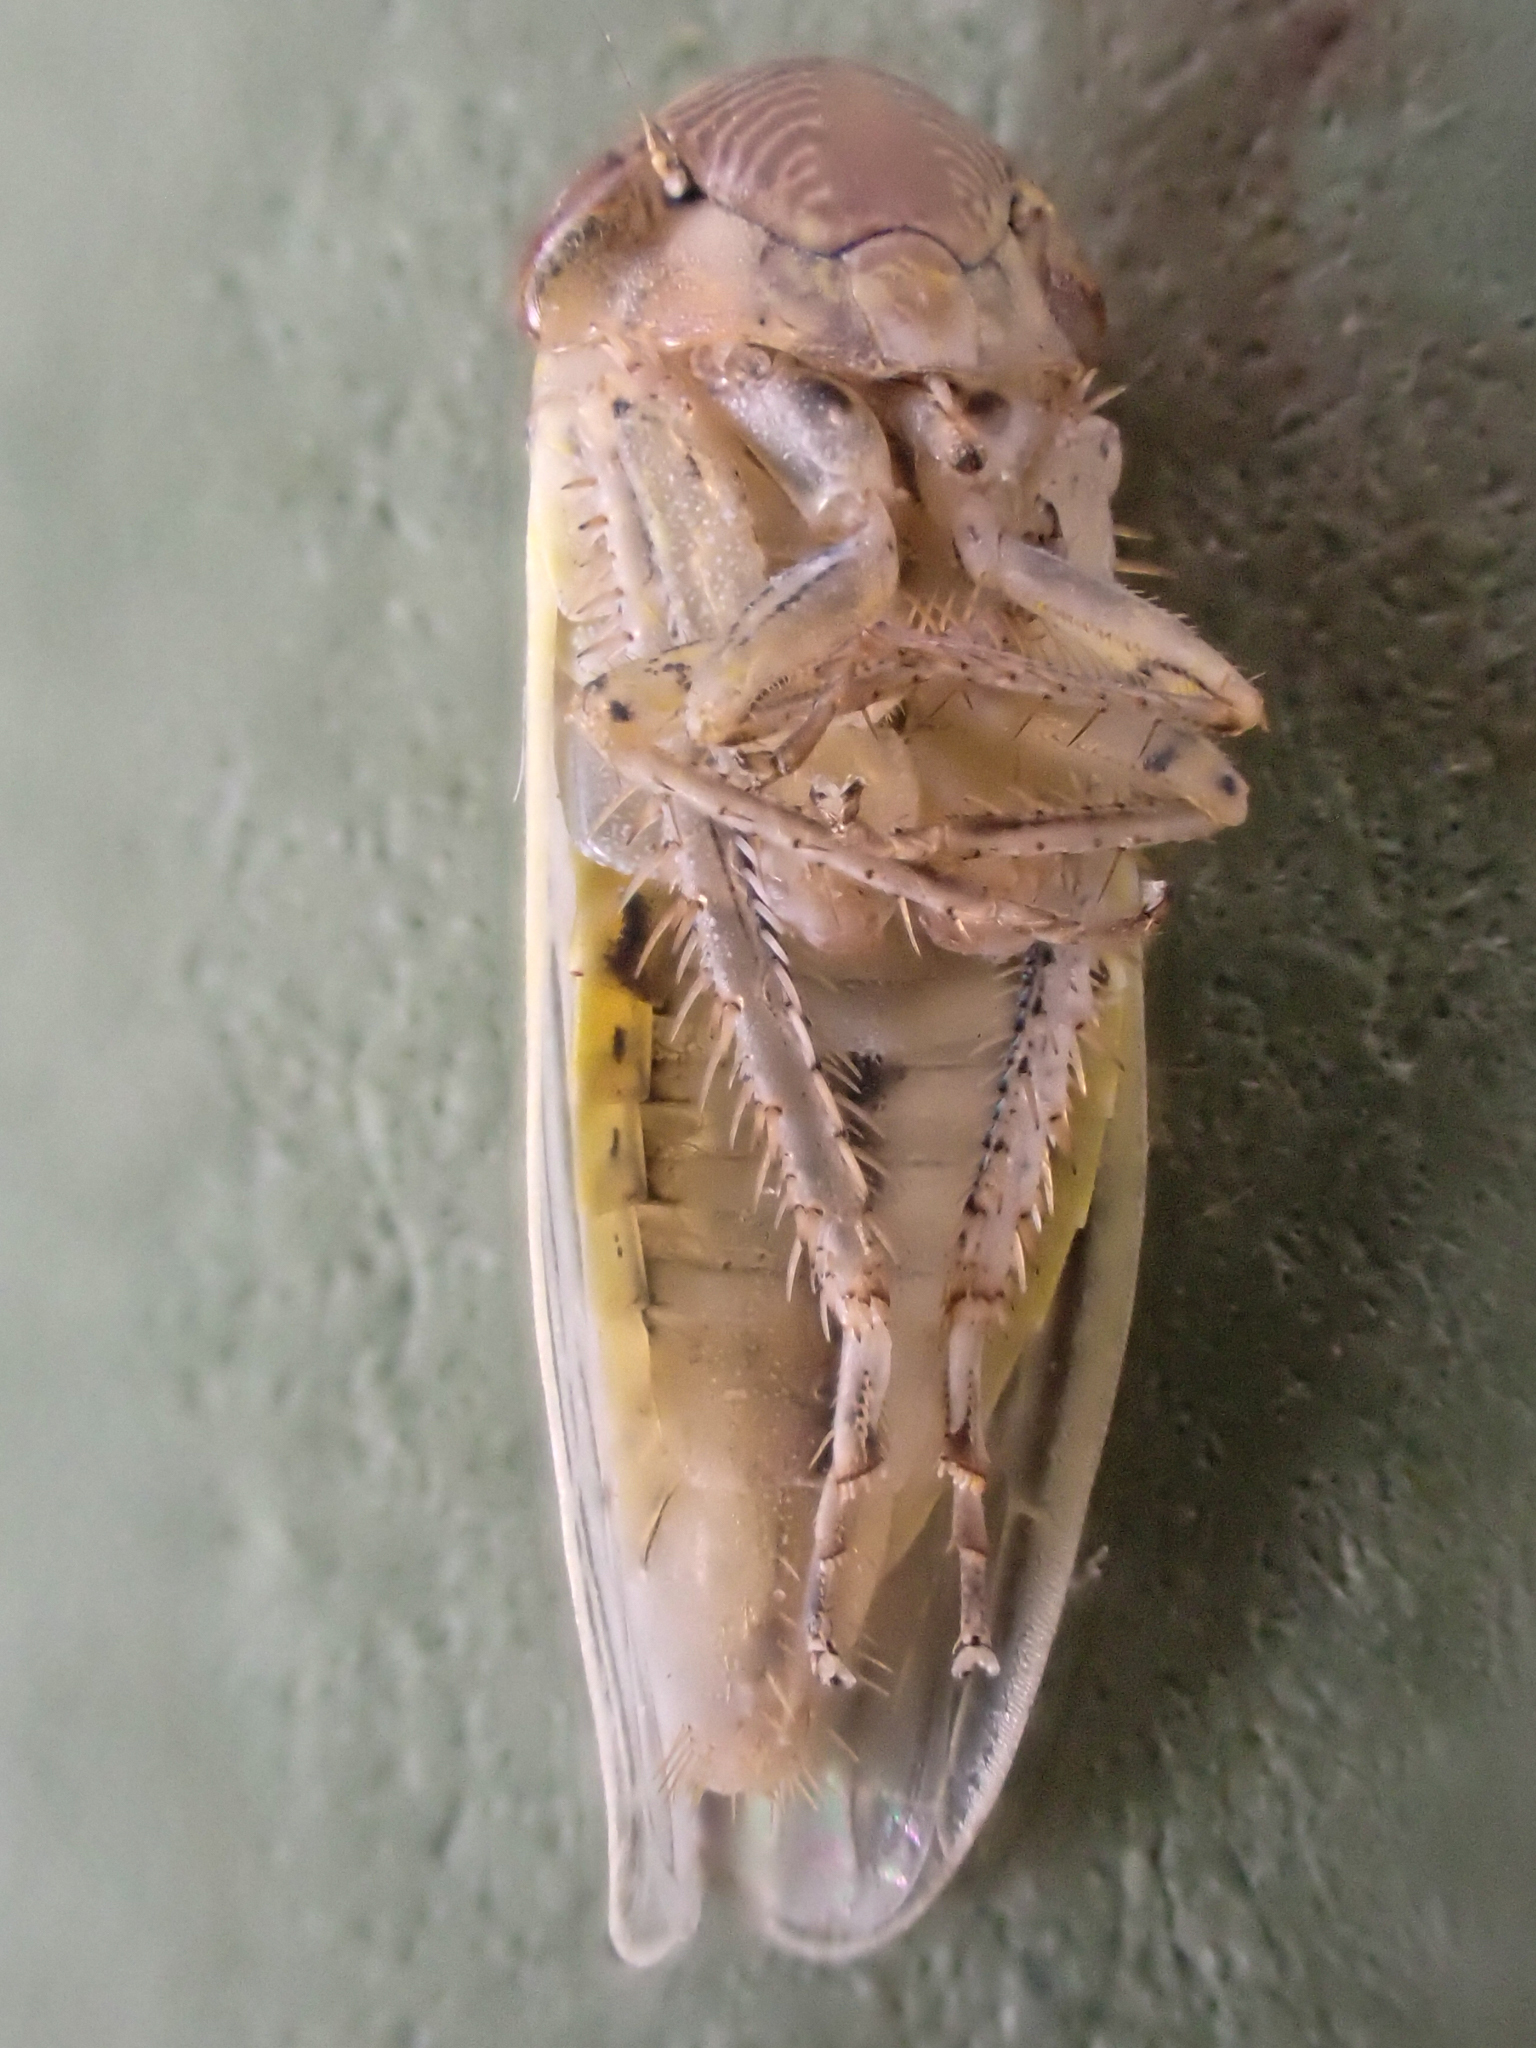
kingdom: Animalia
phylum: Arthropoda
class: Insecta
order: Hemiptera
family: Cicadellidae
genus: Athysanus
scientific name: Athysanus argentarius
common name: Silver leafhopper
